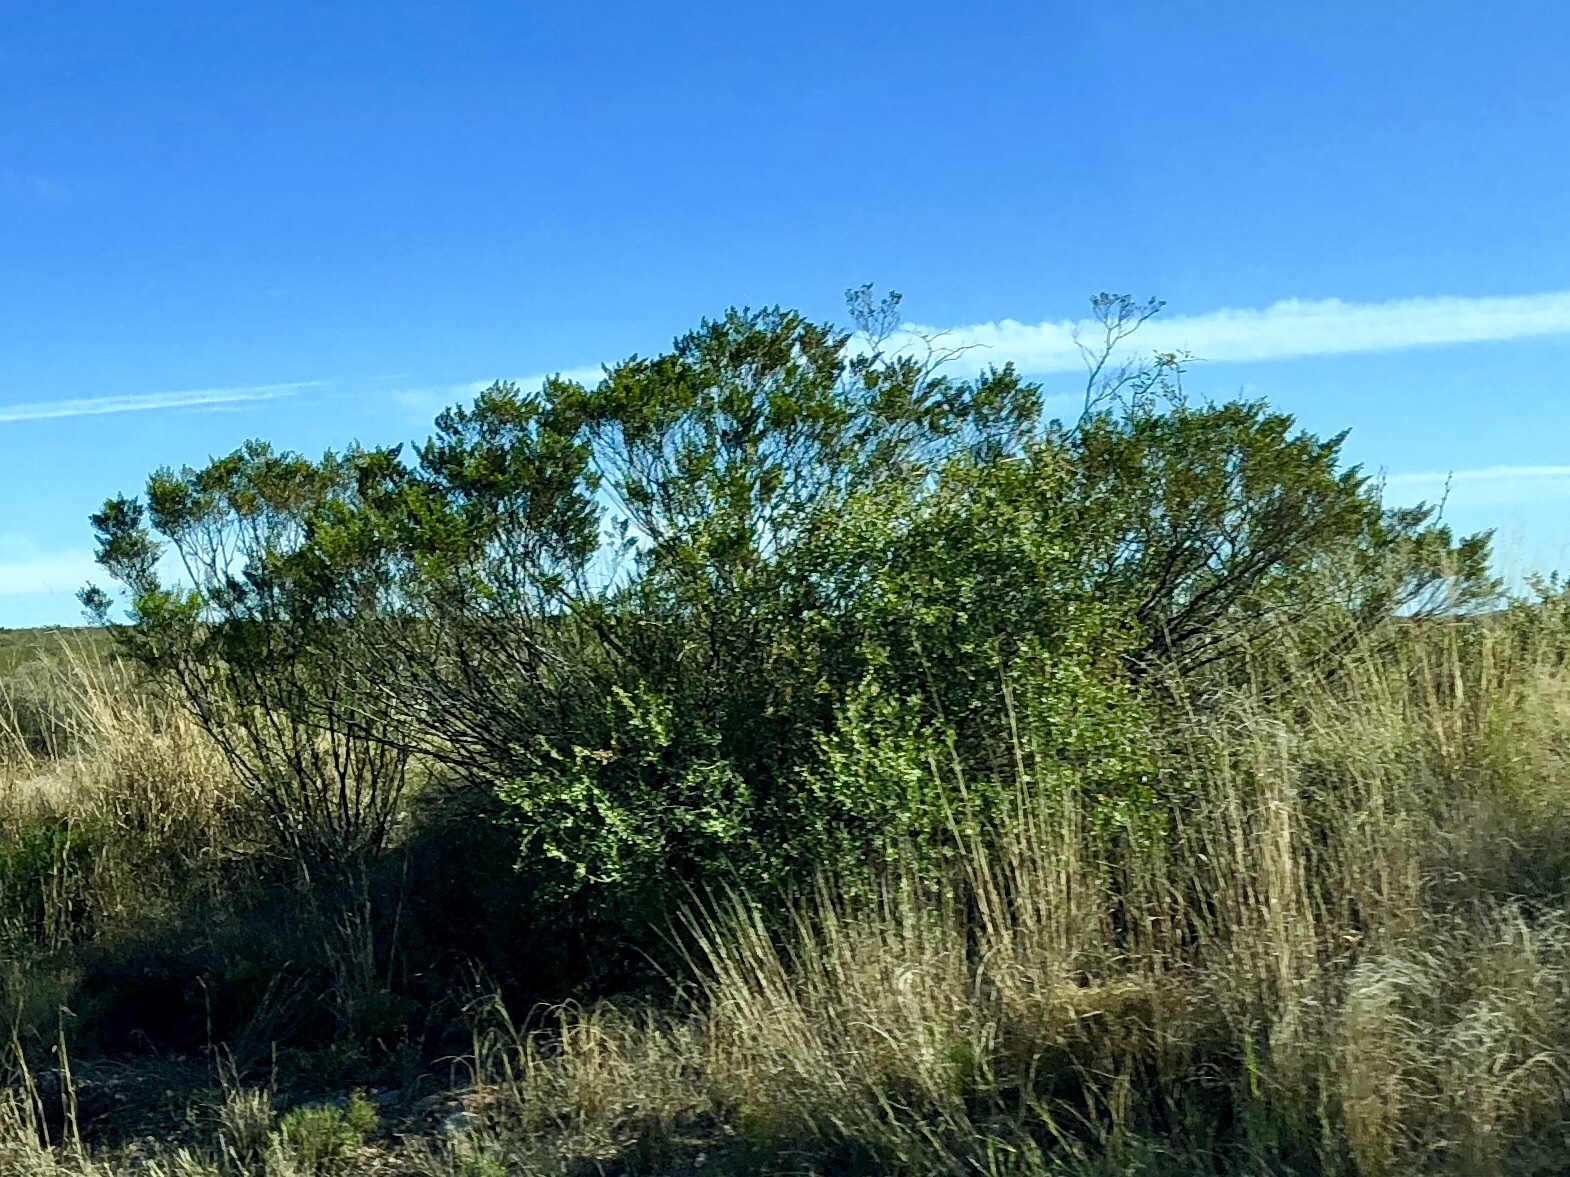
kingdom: Plantae
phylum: Tracheophyta
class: Magnoliopsida
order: Zygophyllales
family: Zygophyllaceae
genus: Larrea
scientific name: Larrea tridentata
